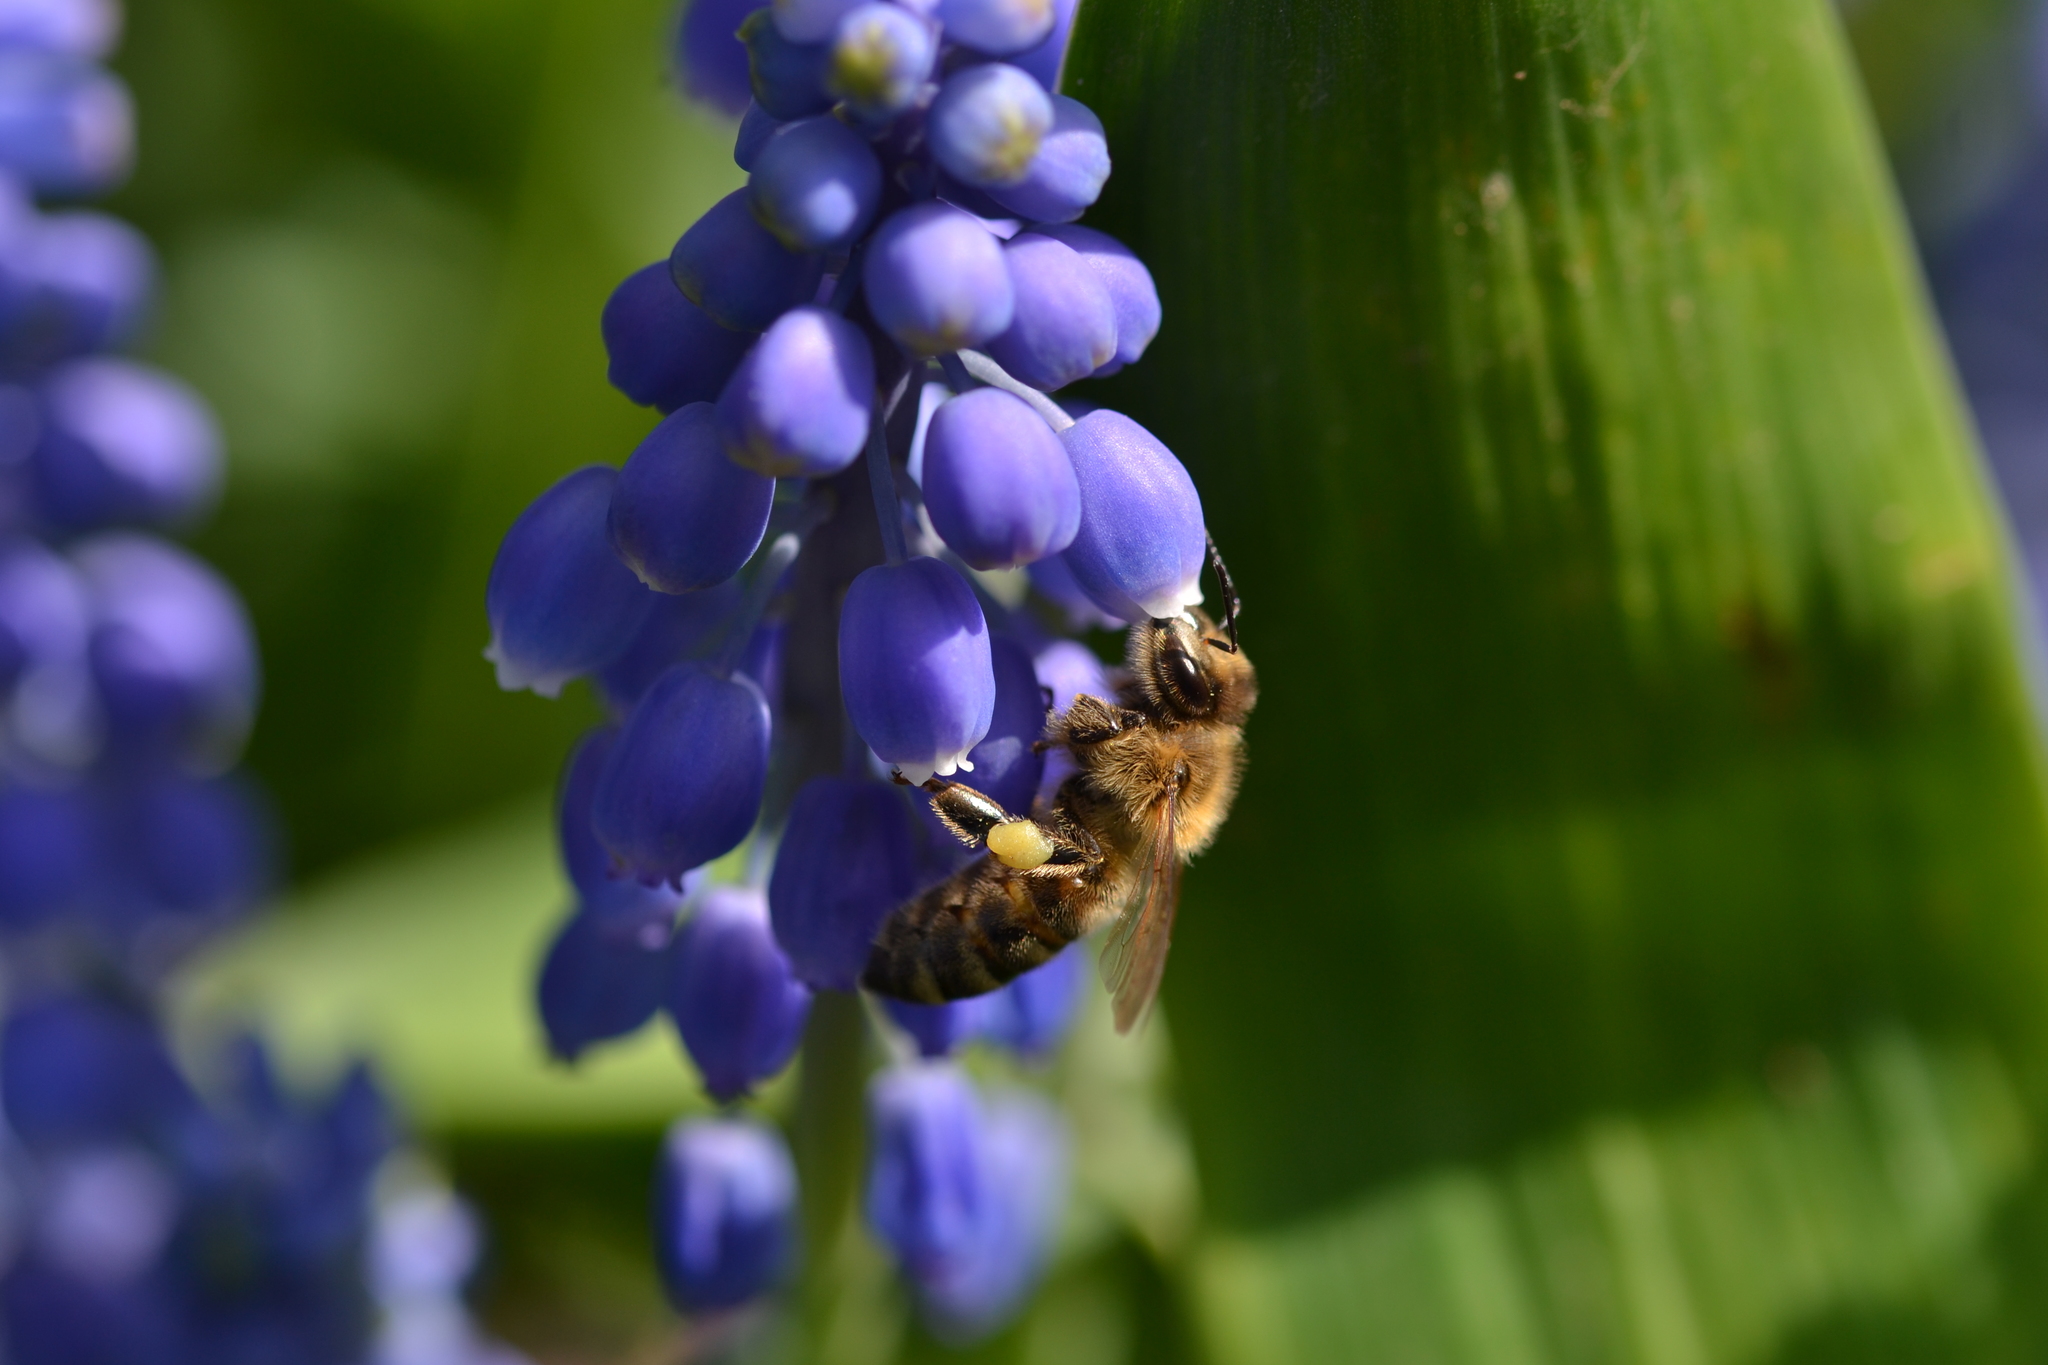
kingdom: Animalia
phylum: Arthropoda
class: Insecta
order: Hymenoptera
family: Apidae
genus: Apis
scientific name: Apis mellifera
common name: Honey bee
